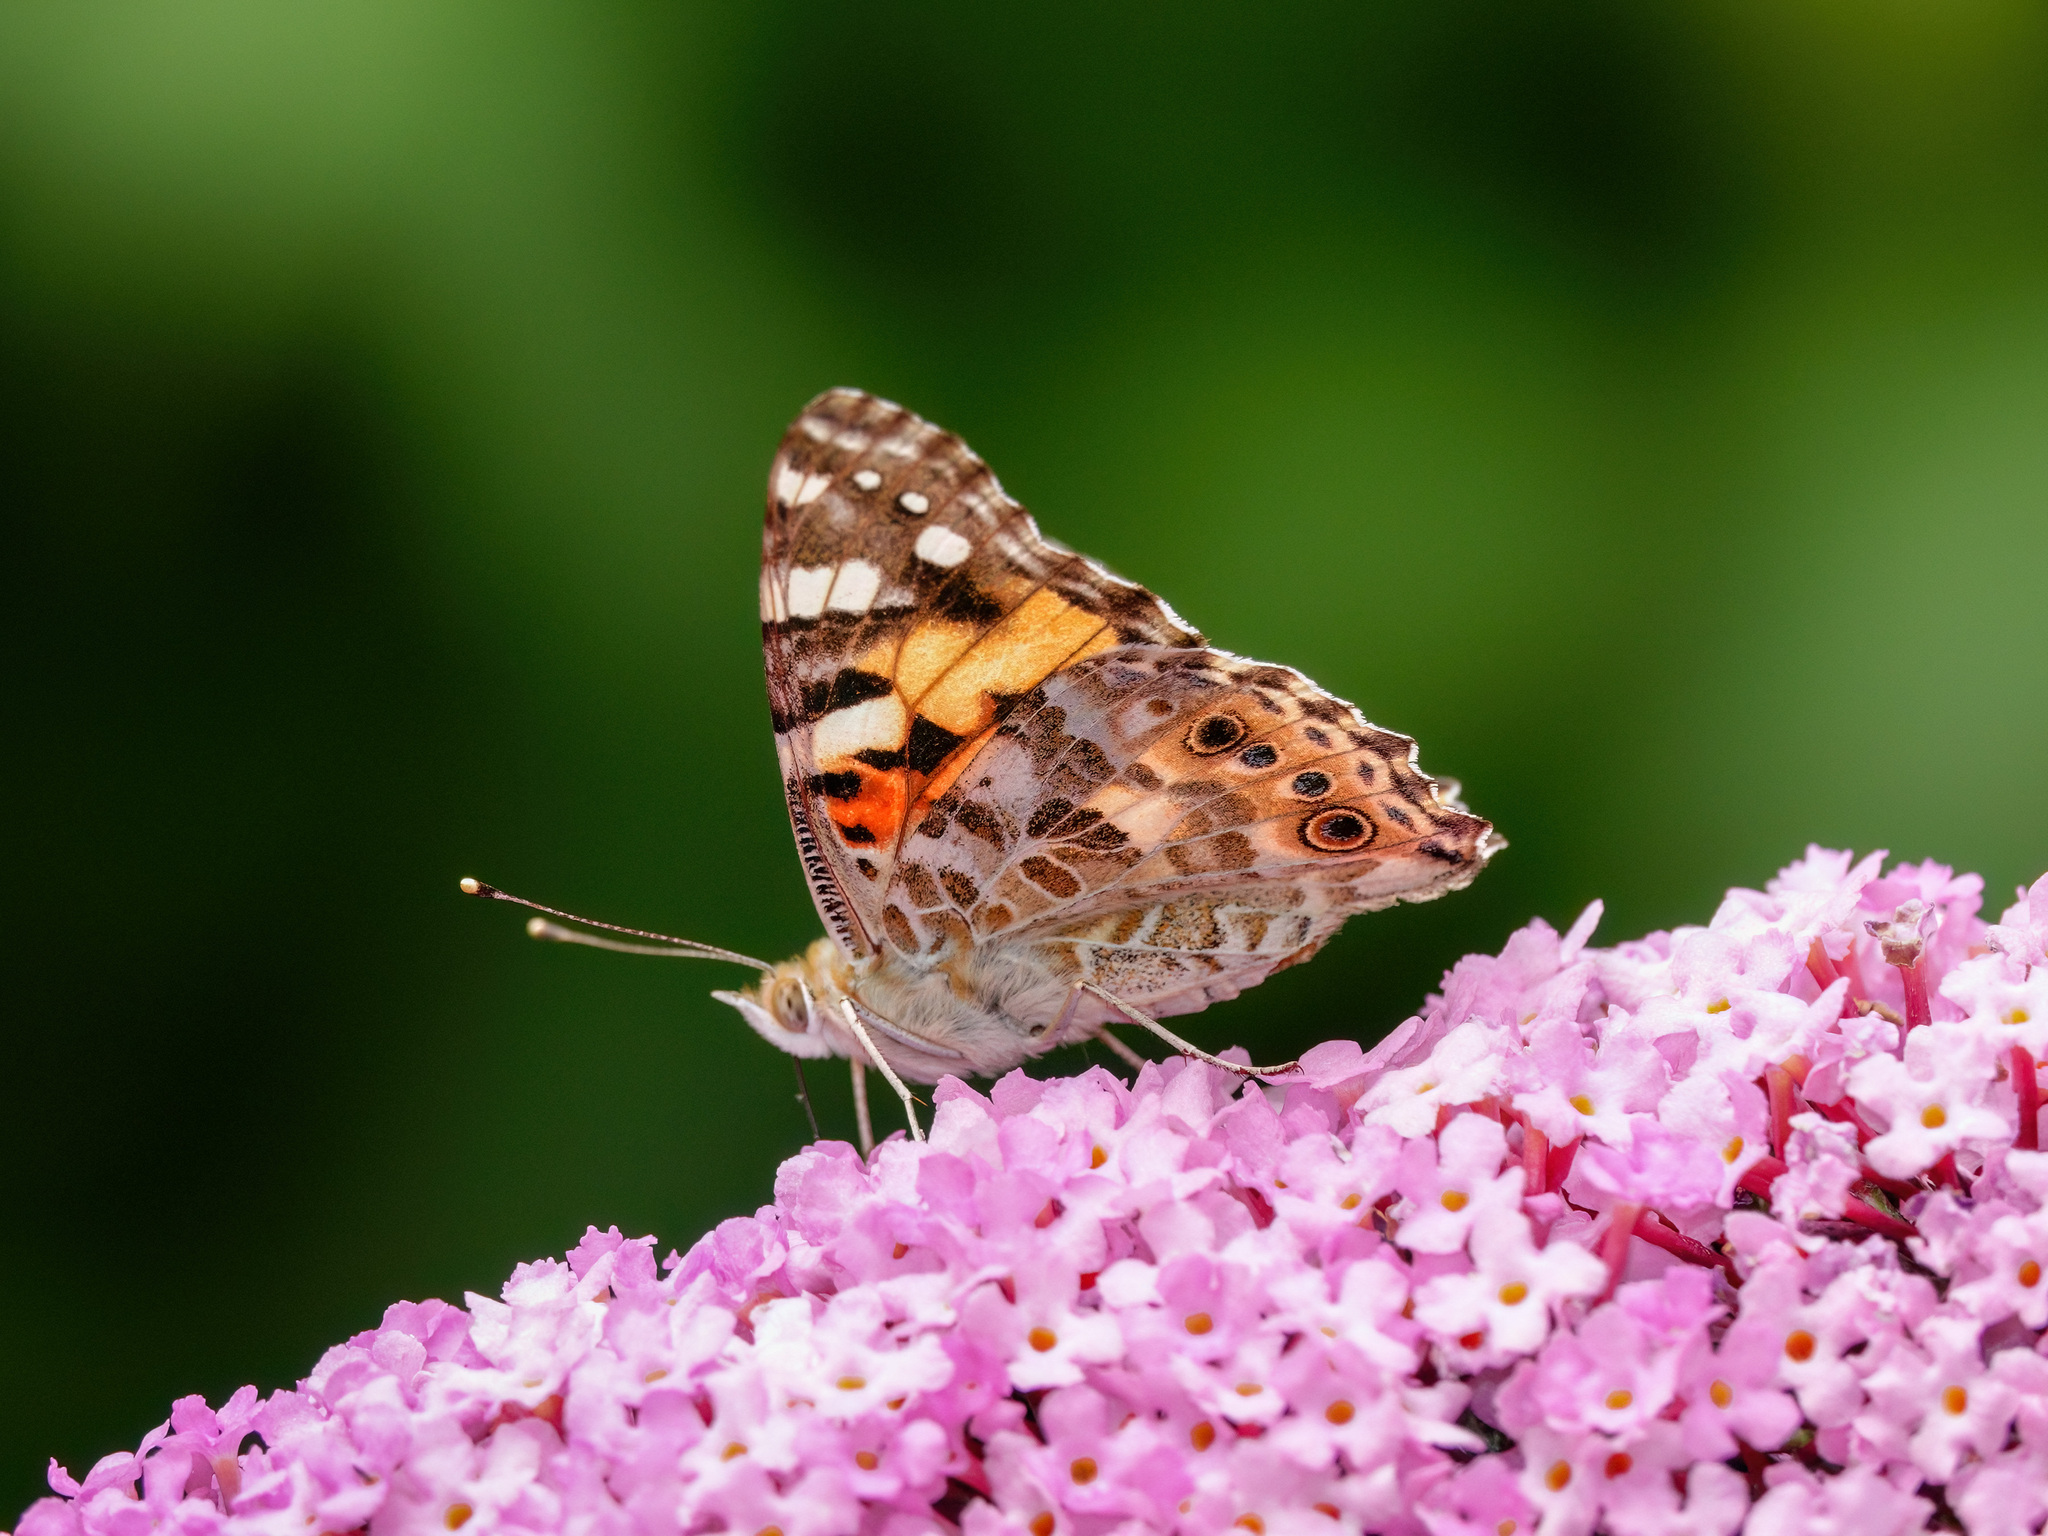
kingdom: Animalia
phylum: Arthropoda
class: Insecta
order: Lepidoptera
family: Nymphalidae
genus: Vanessa
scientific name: Vanessa cardui
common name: Painted lady
